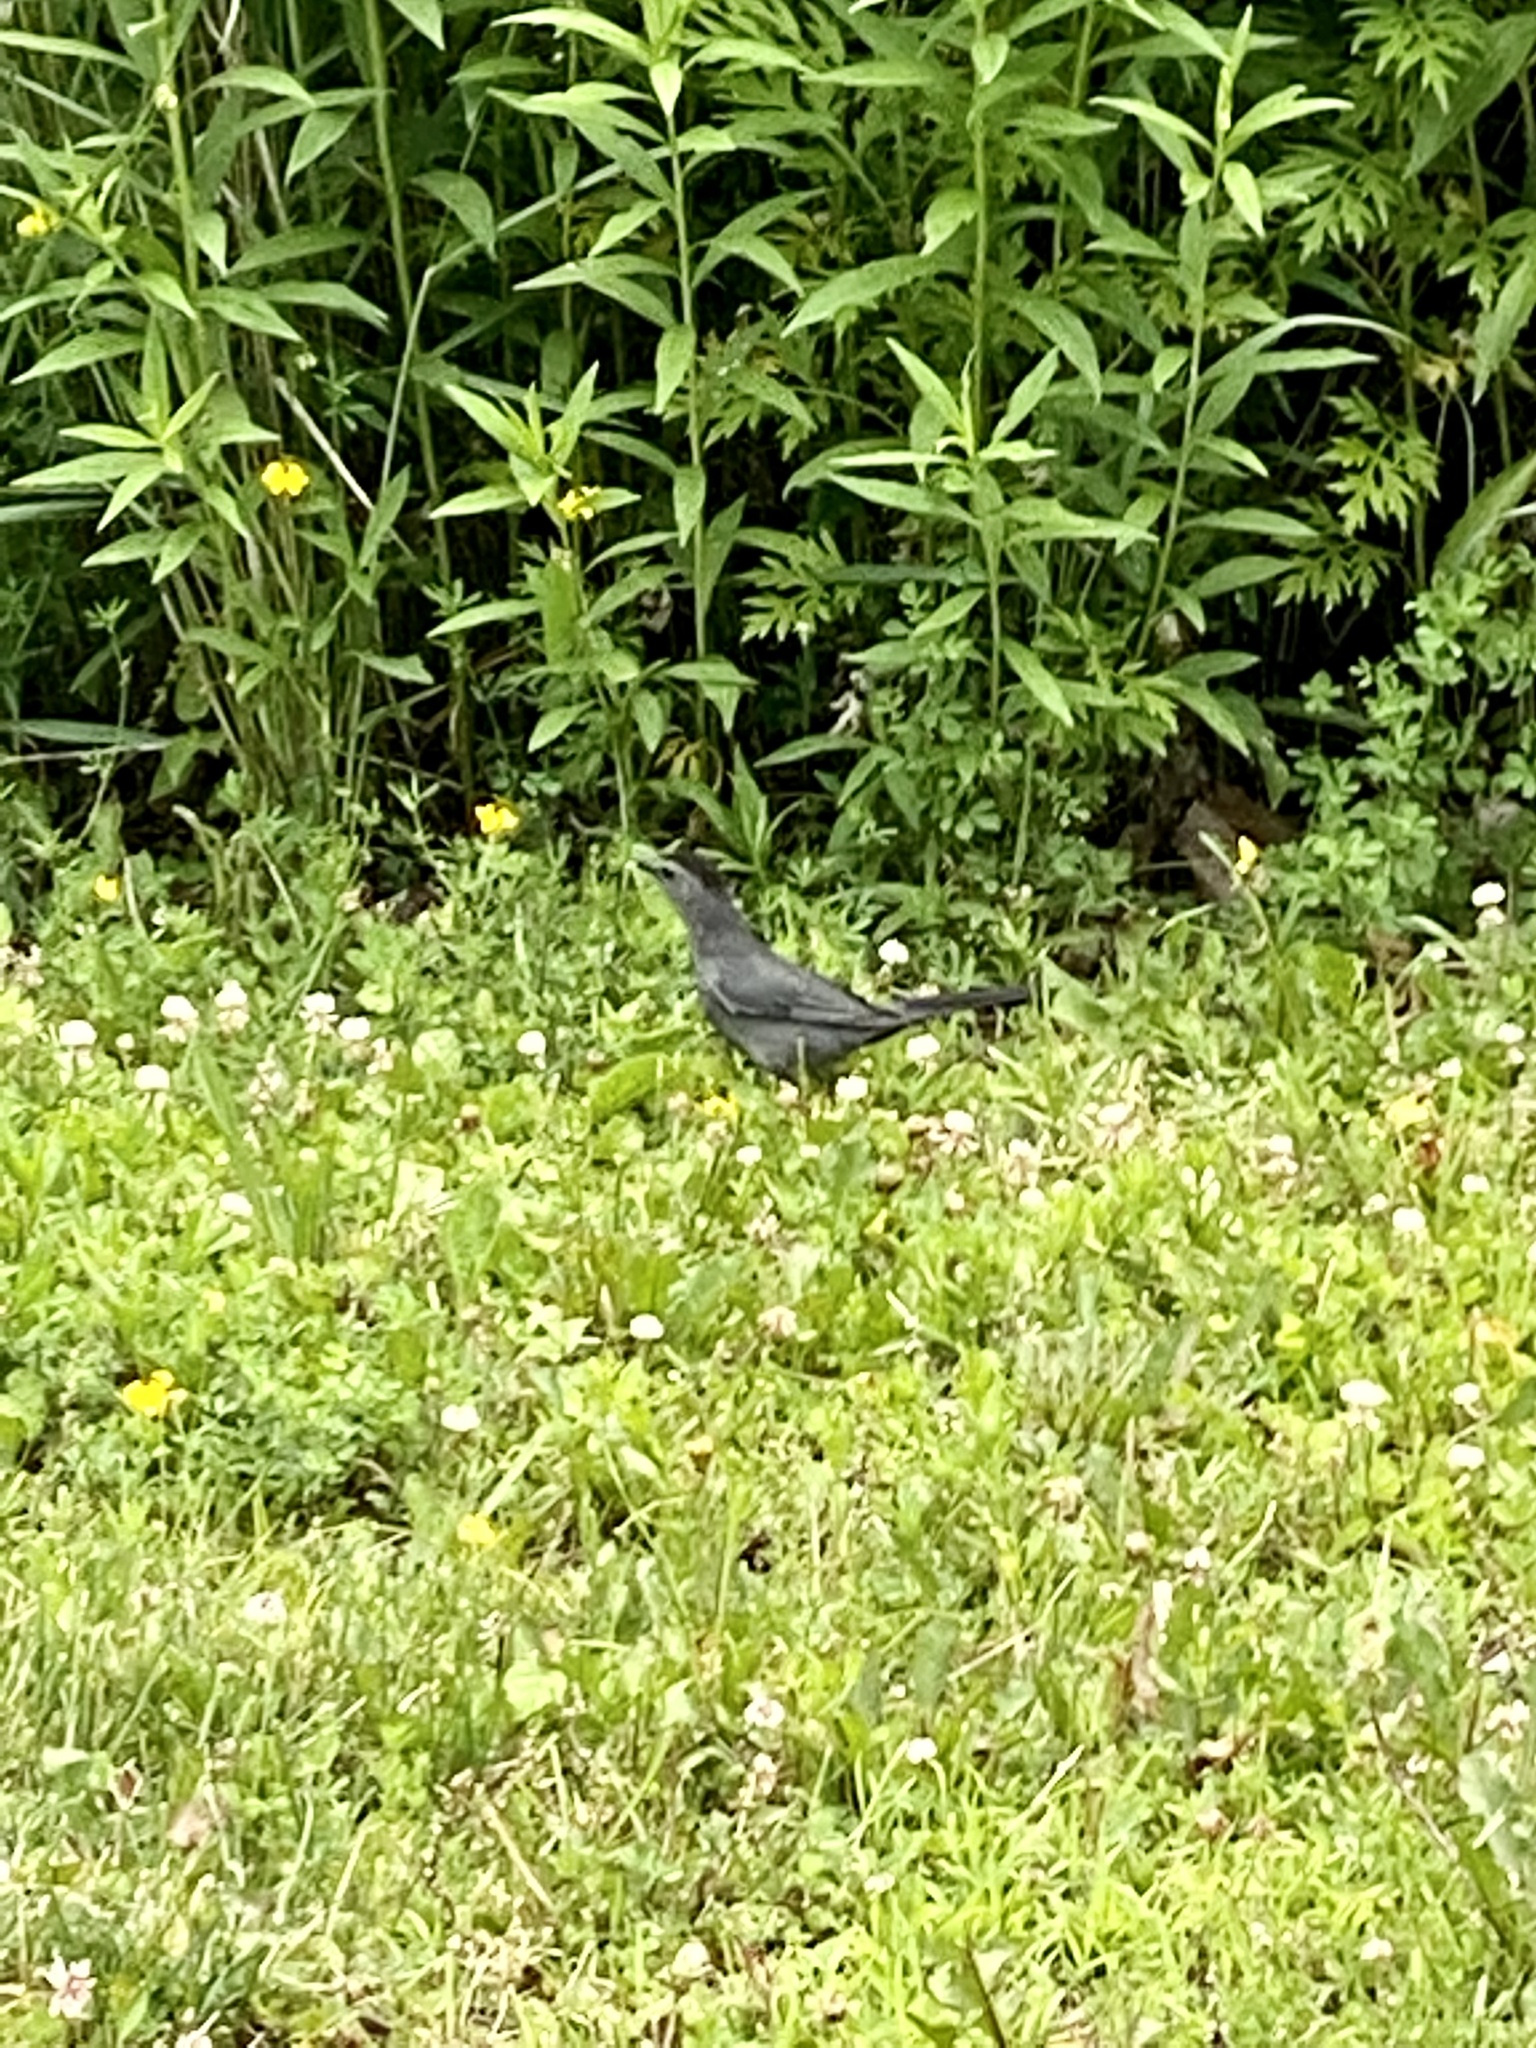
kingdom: Animalia
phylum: Chordata
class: Aves
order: Passeriformes
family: Mimidae
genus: Dumetella
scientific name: Dumetella carolinensis
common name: Gray catbird
